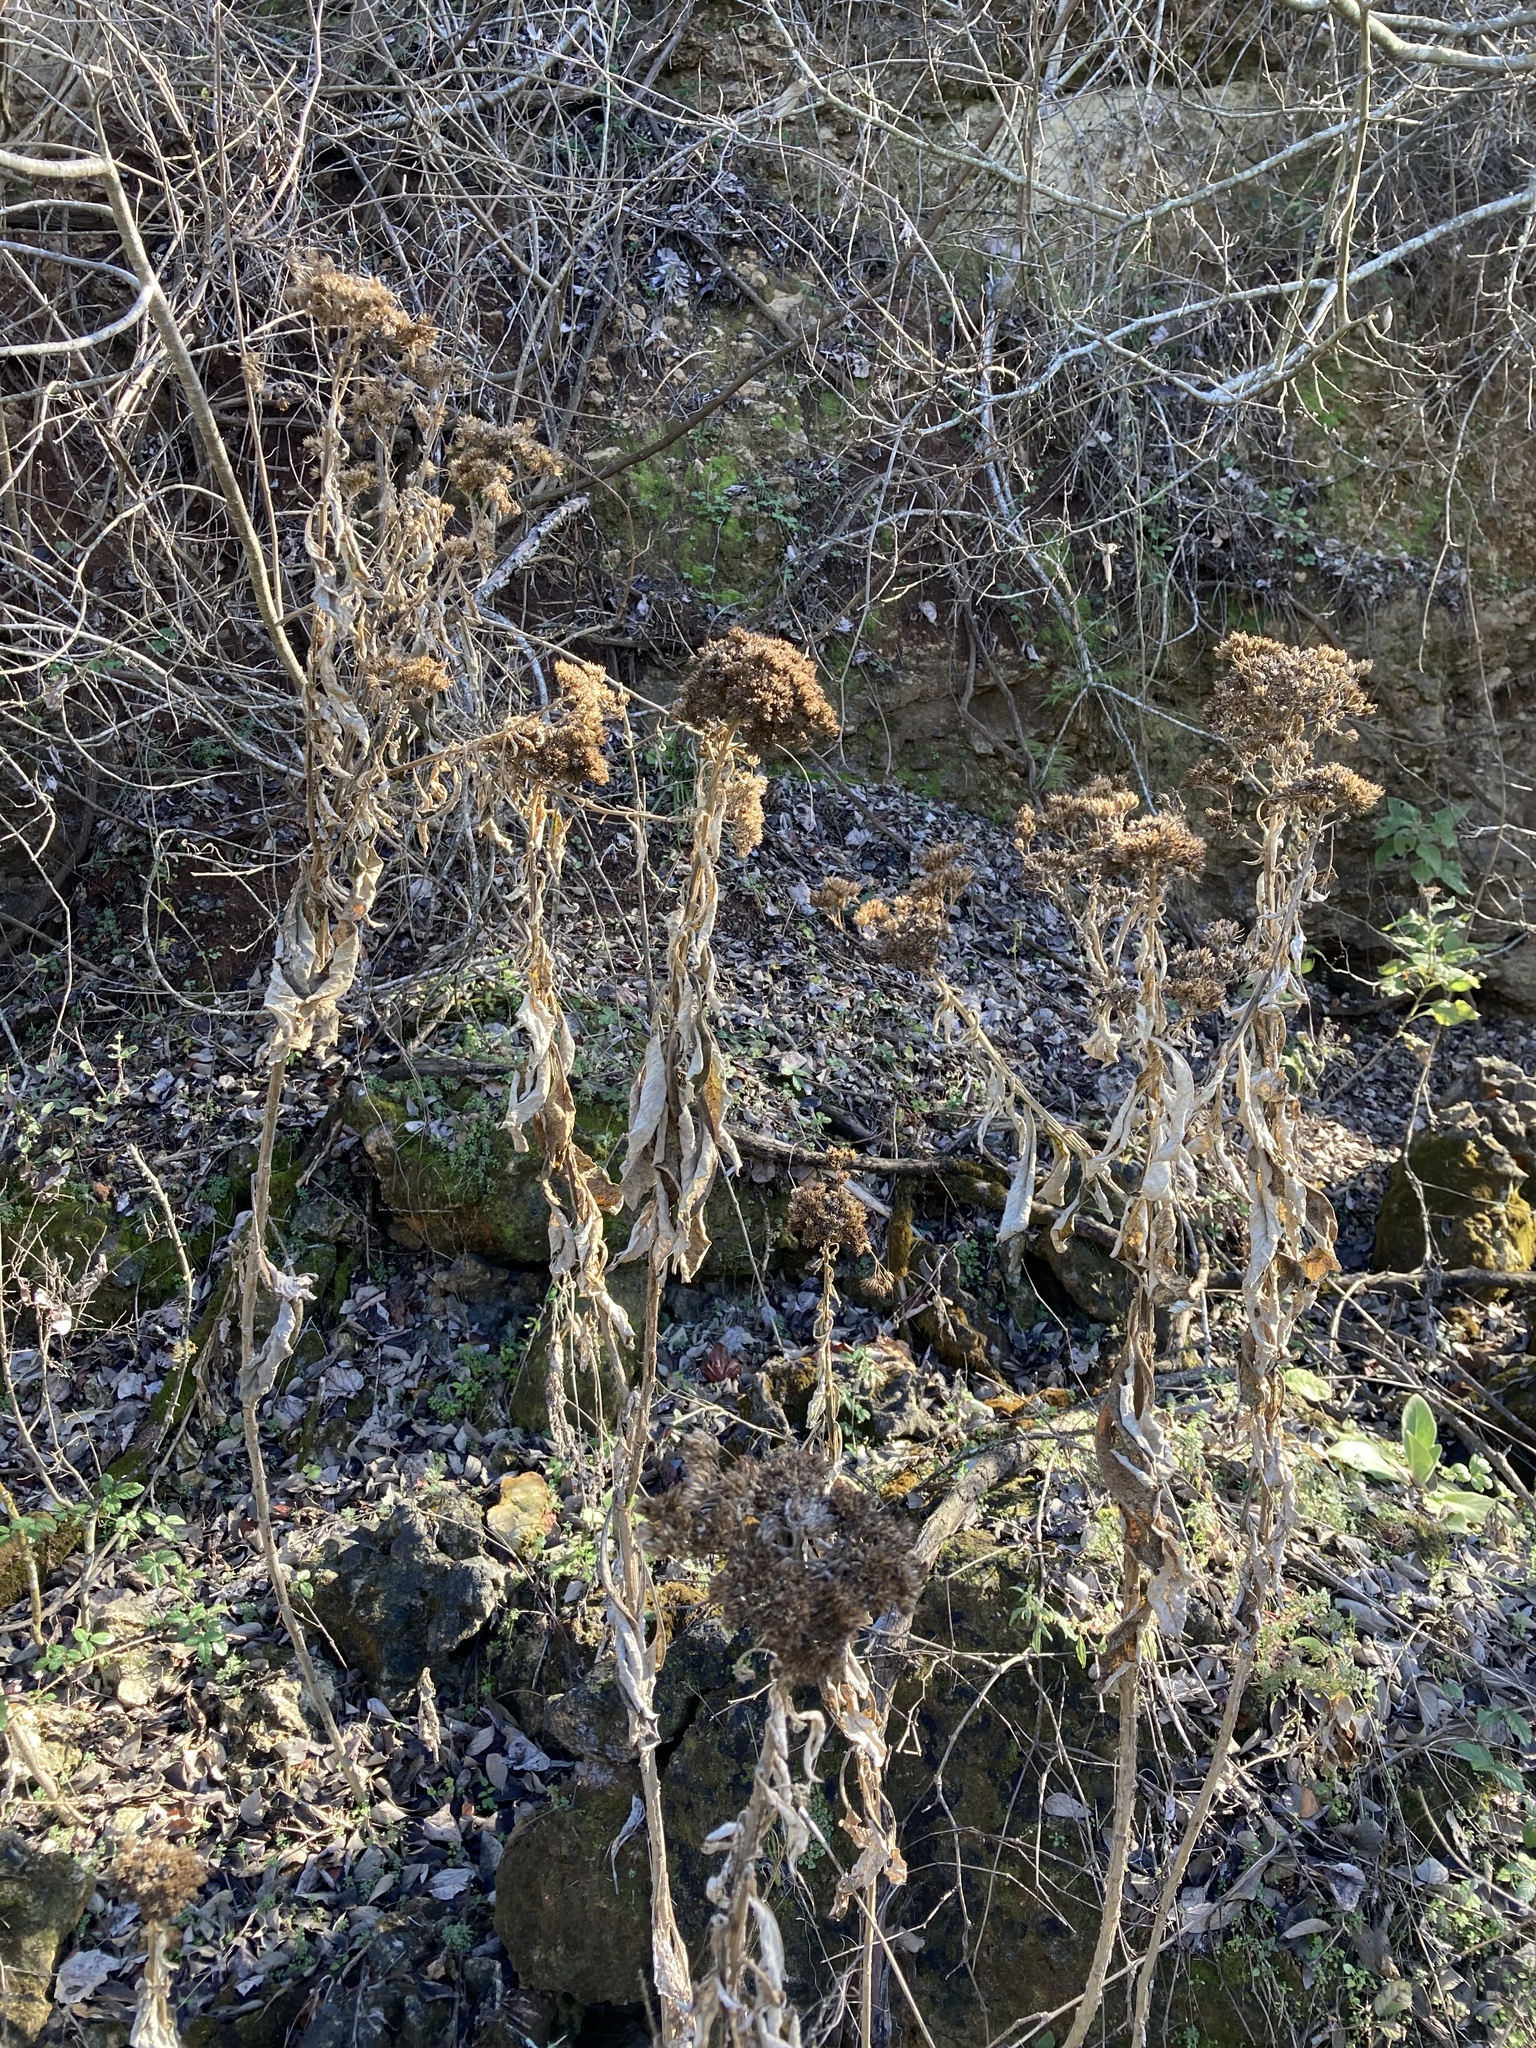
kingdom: Plantae
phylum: Tracheophyta
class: Magnoliopsida
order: Asterales
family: Asteraceae
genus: Verbesina
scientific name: Verbesina virginica
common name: Frostweed
